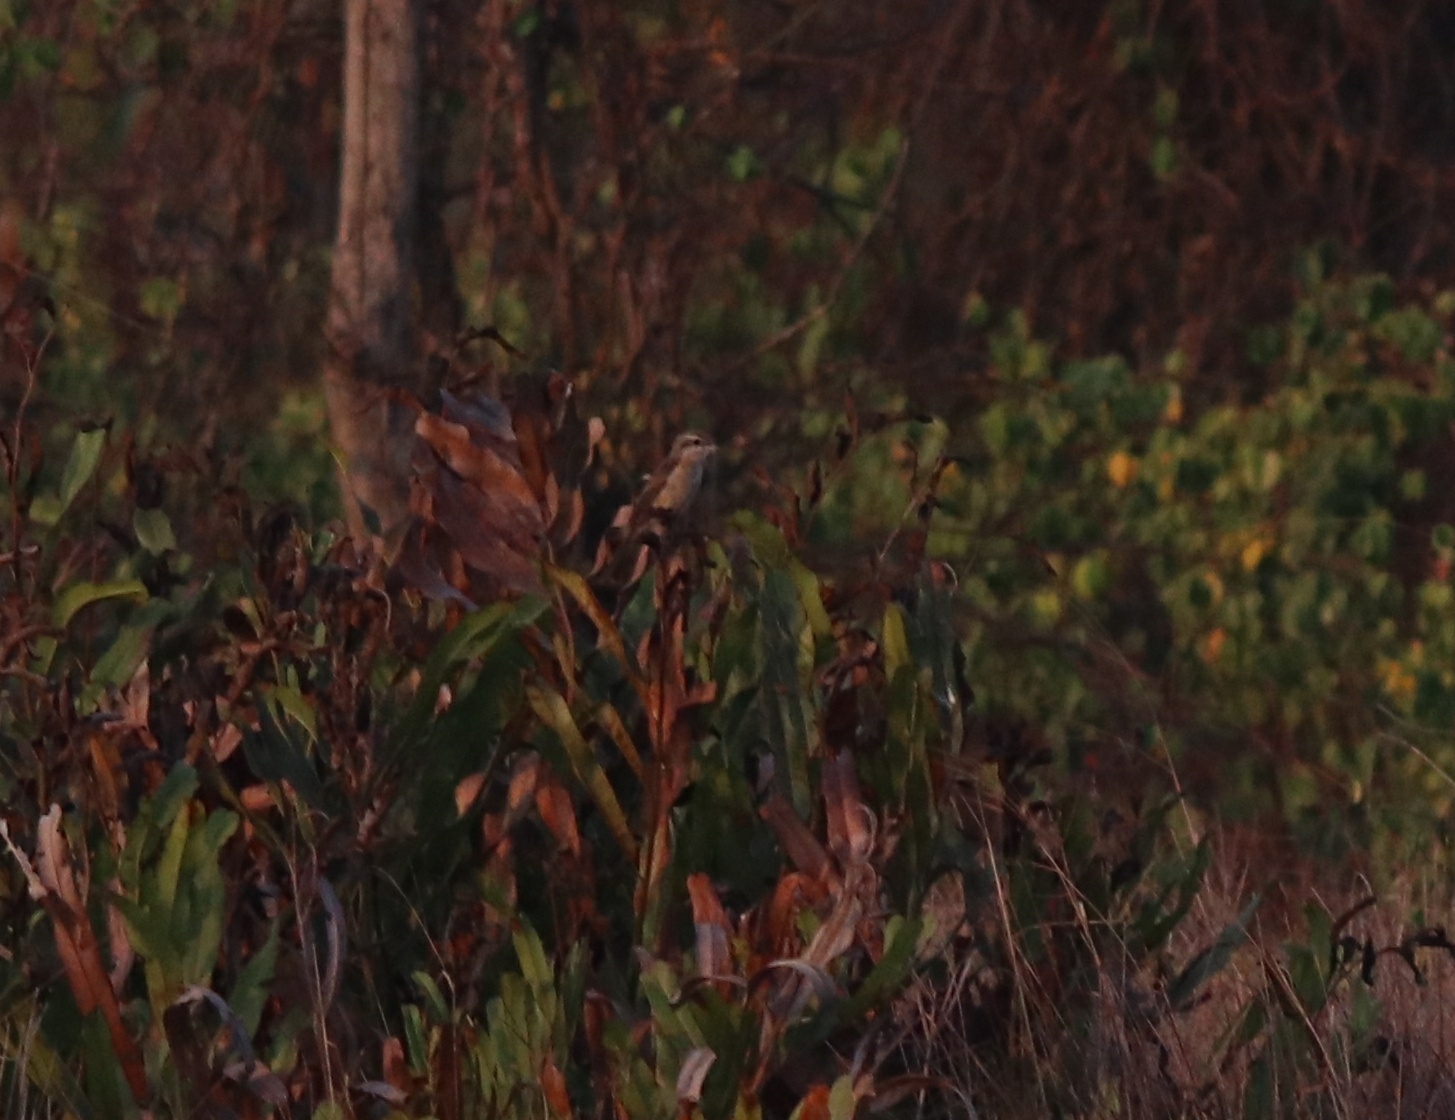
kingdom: Animalia
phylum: Chordata
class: Aves
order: Passeriformes
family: Laniidae
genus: Lanius
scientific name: Lanius cristatus
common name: Brown shrike
